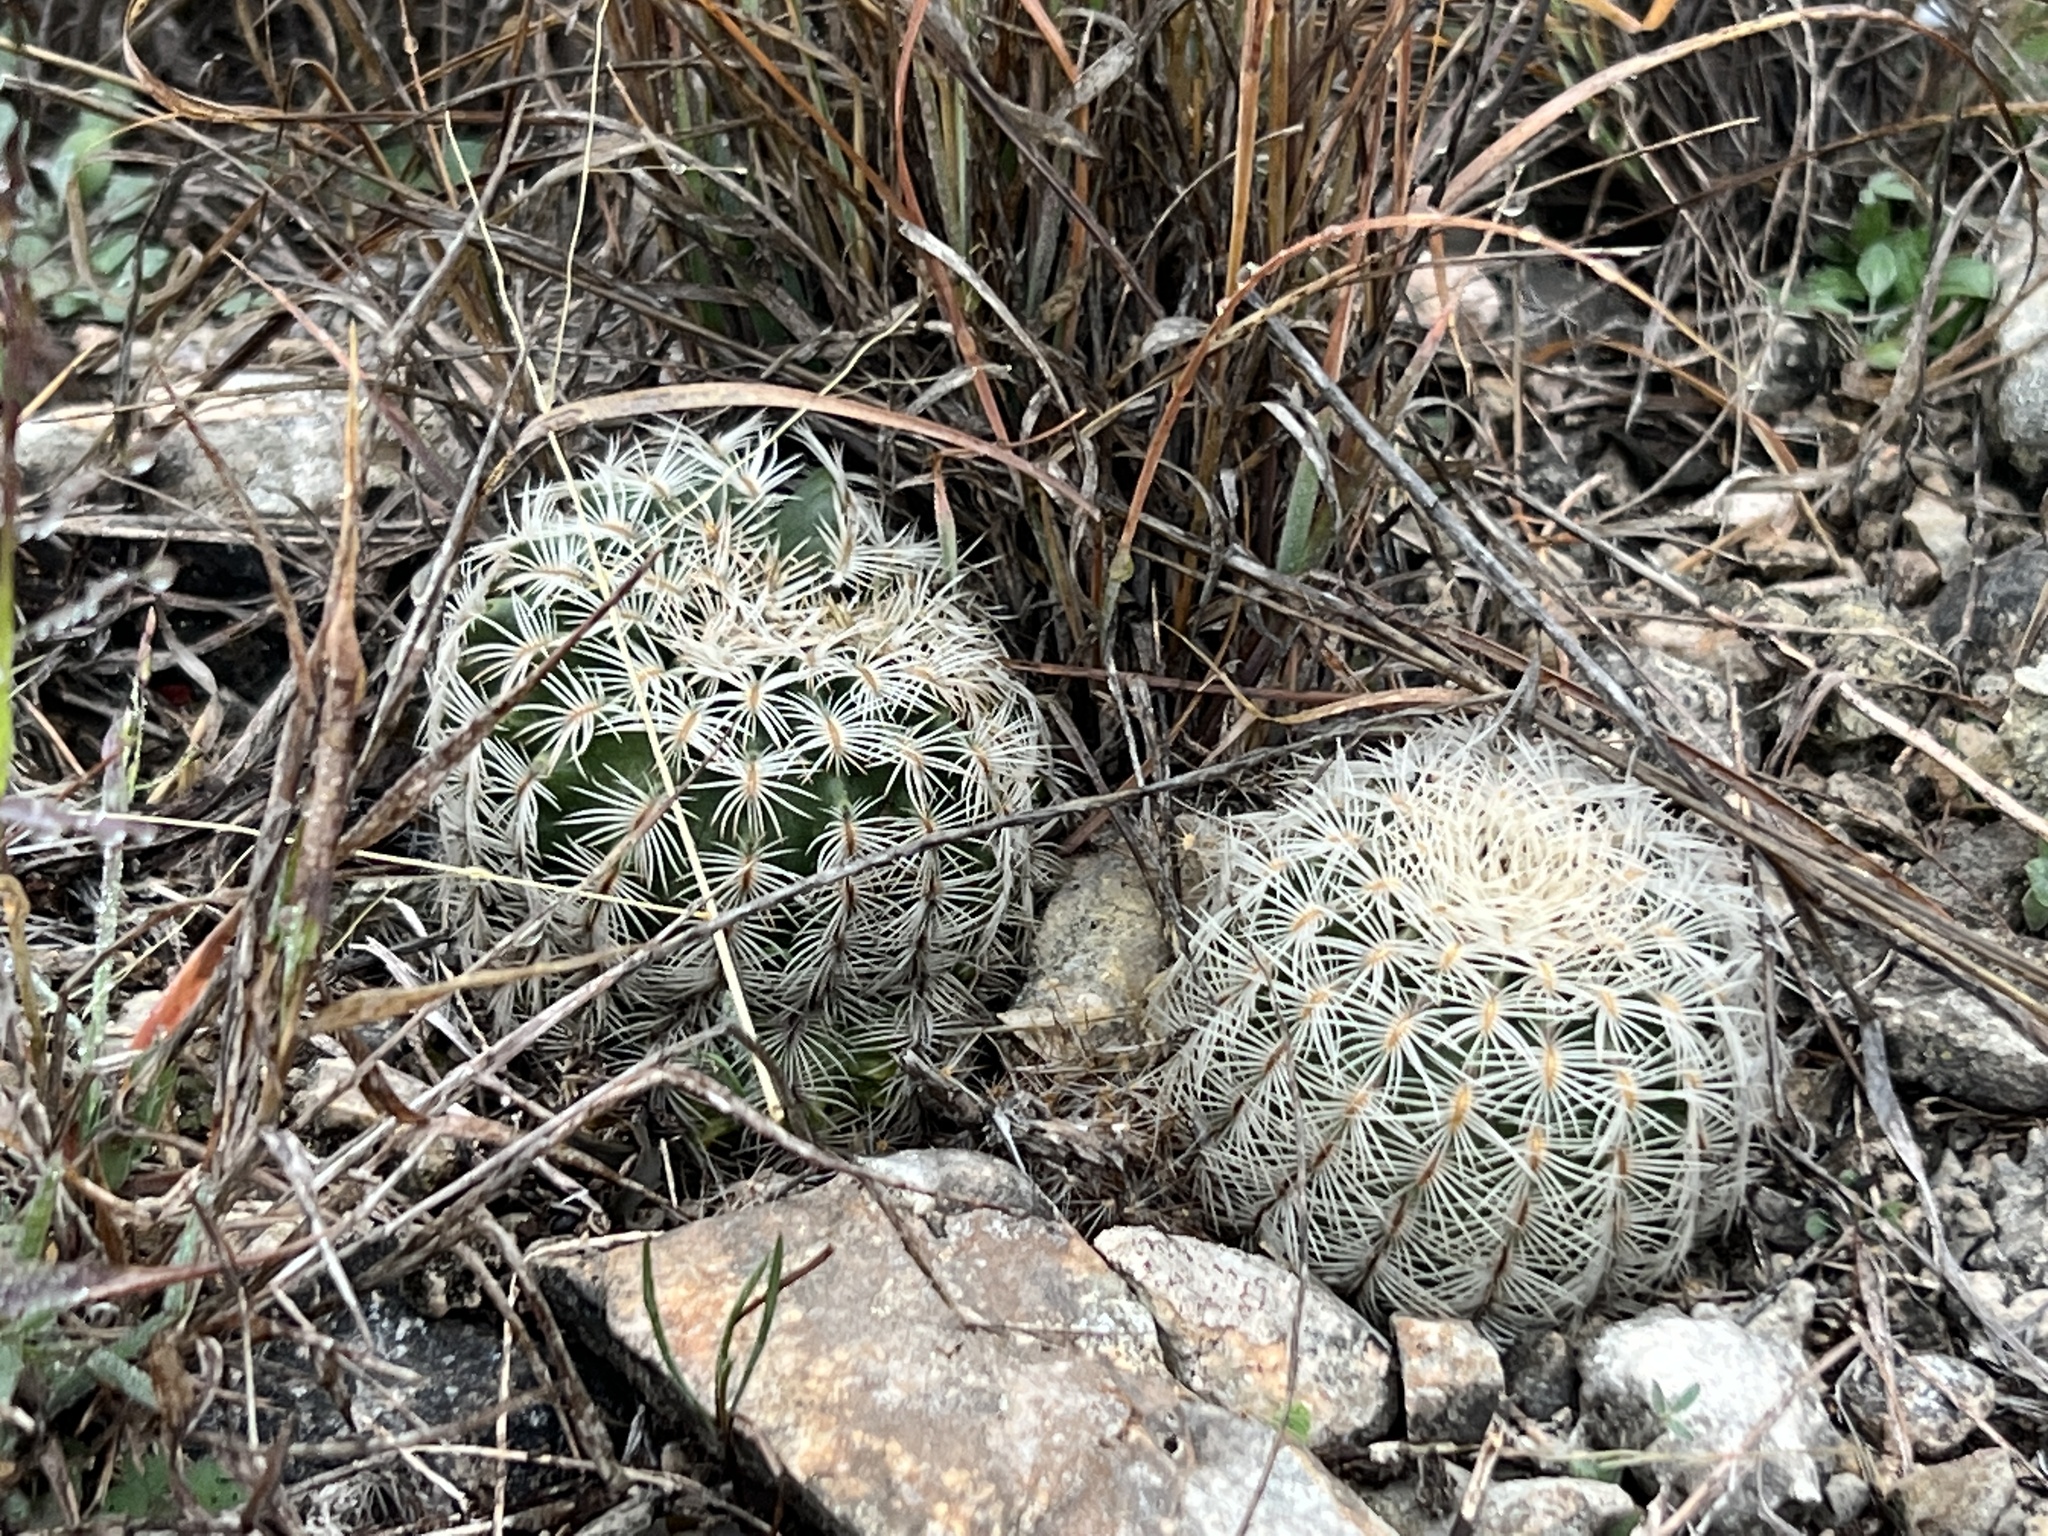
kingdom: Plantae
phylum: Tracheophyta
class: Magnoliopsida
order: Caryophyllales
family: Cactaceae
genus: Echinocereus
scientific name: Echinocereus reichenbachii
